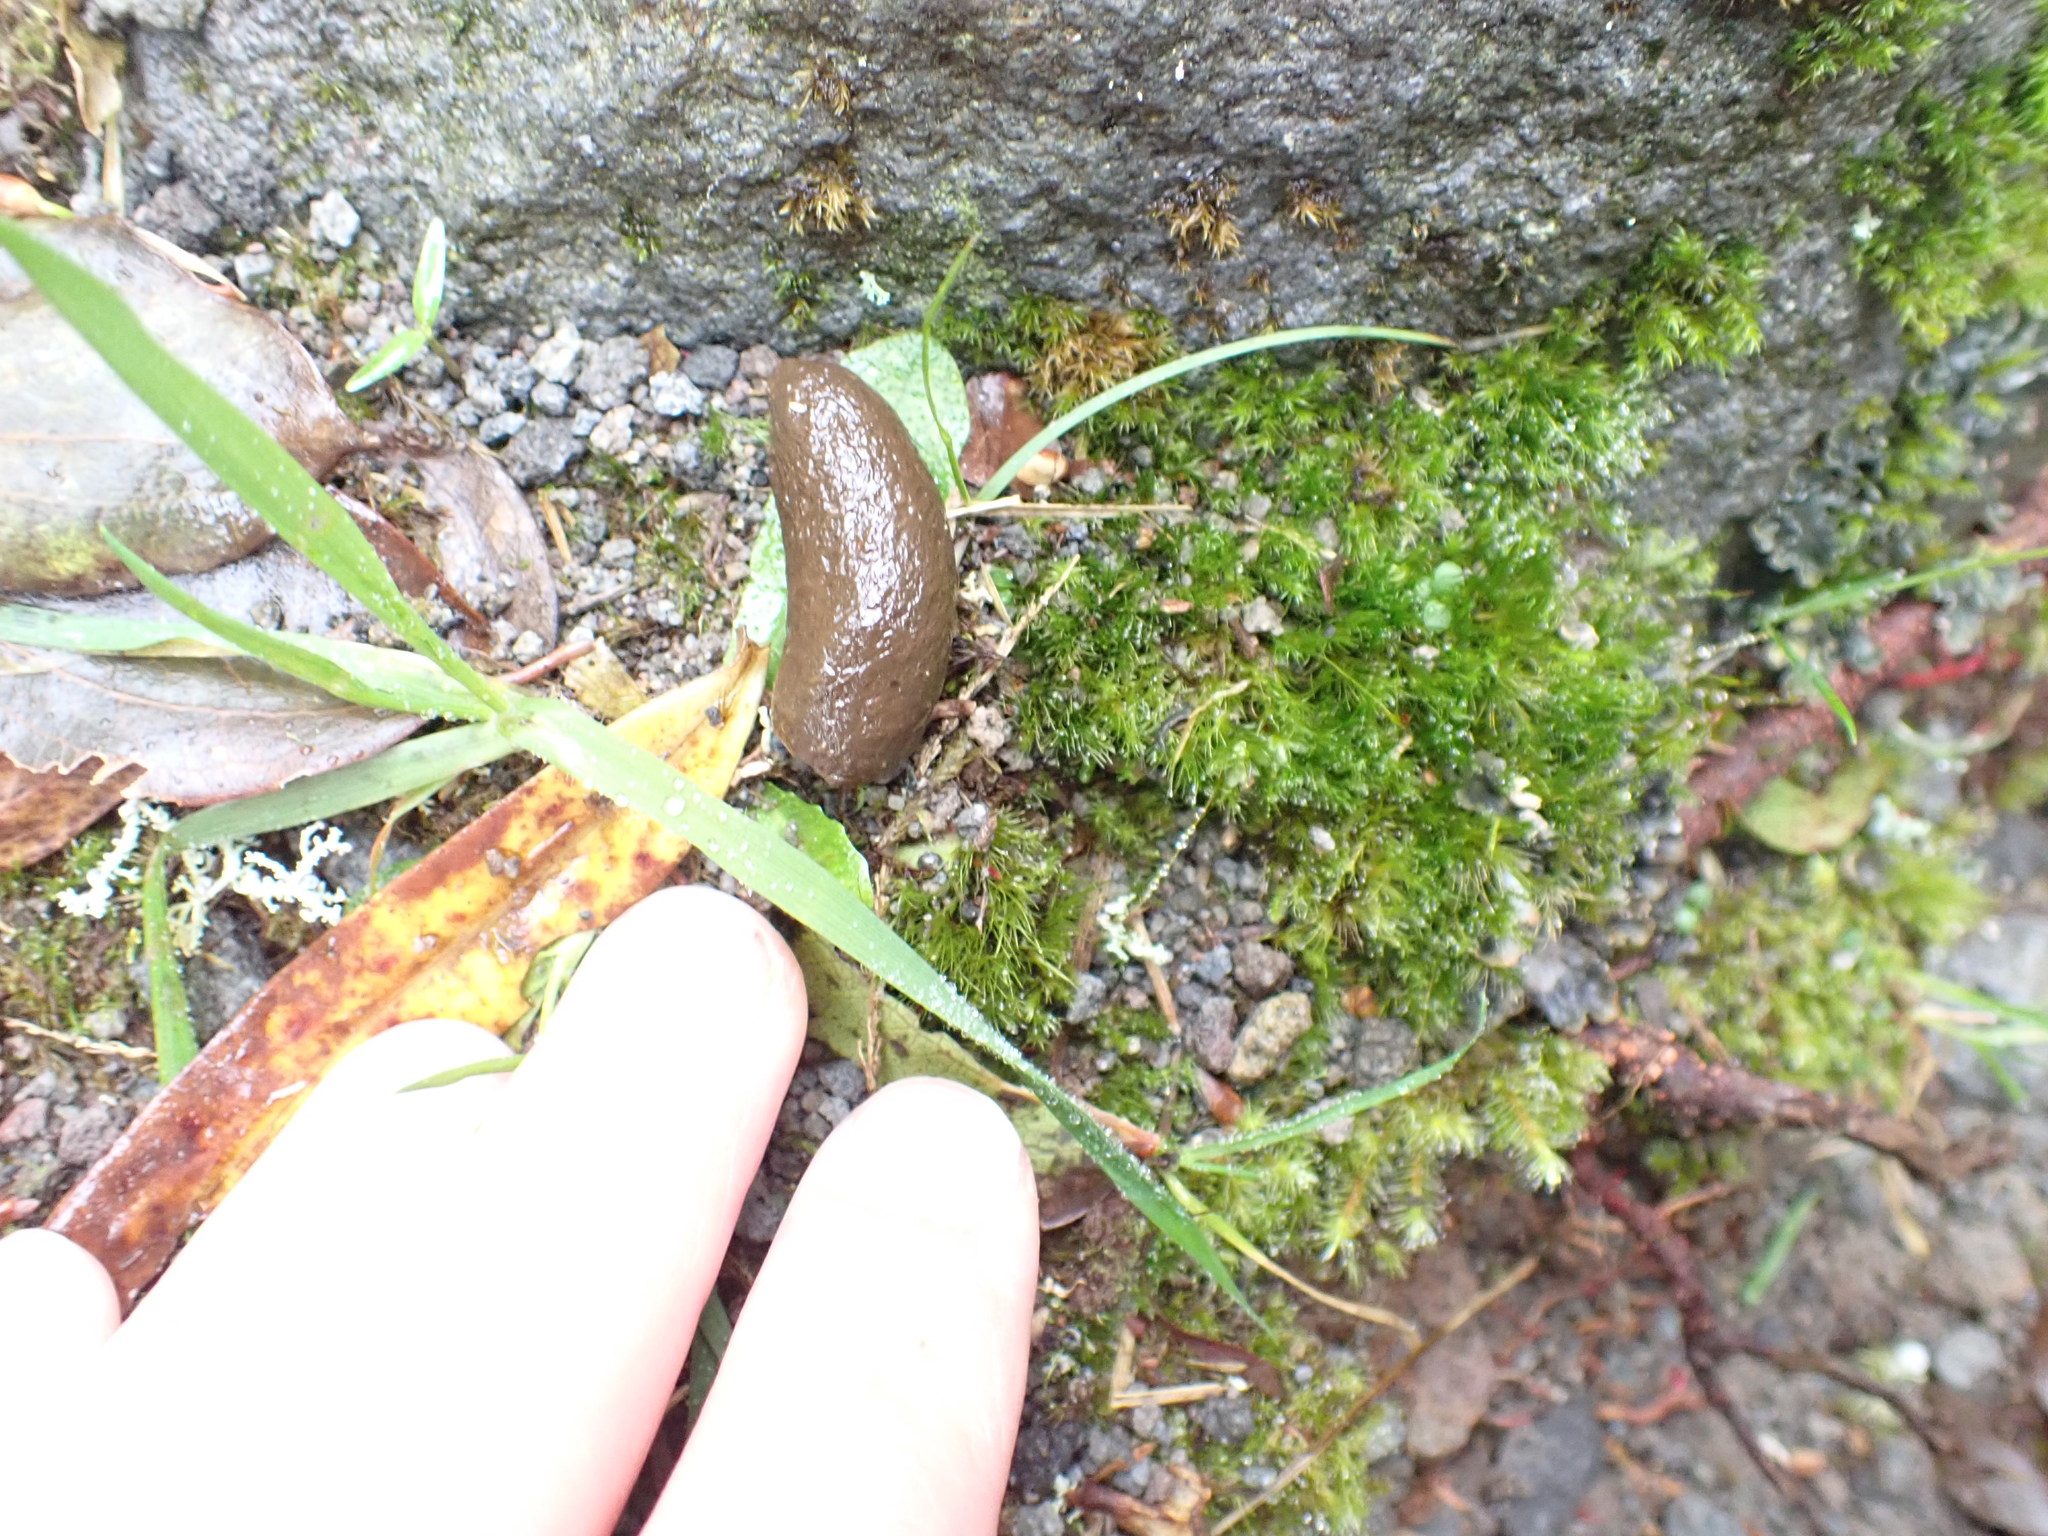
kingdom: Animalia
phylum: Chordata
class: Mammalia
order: Diprotodontia
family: Phalangeridae
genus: Trichosurus
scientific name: Trichosurus vulpecula
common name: Common brushtail
